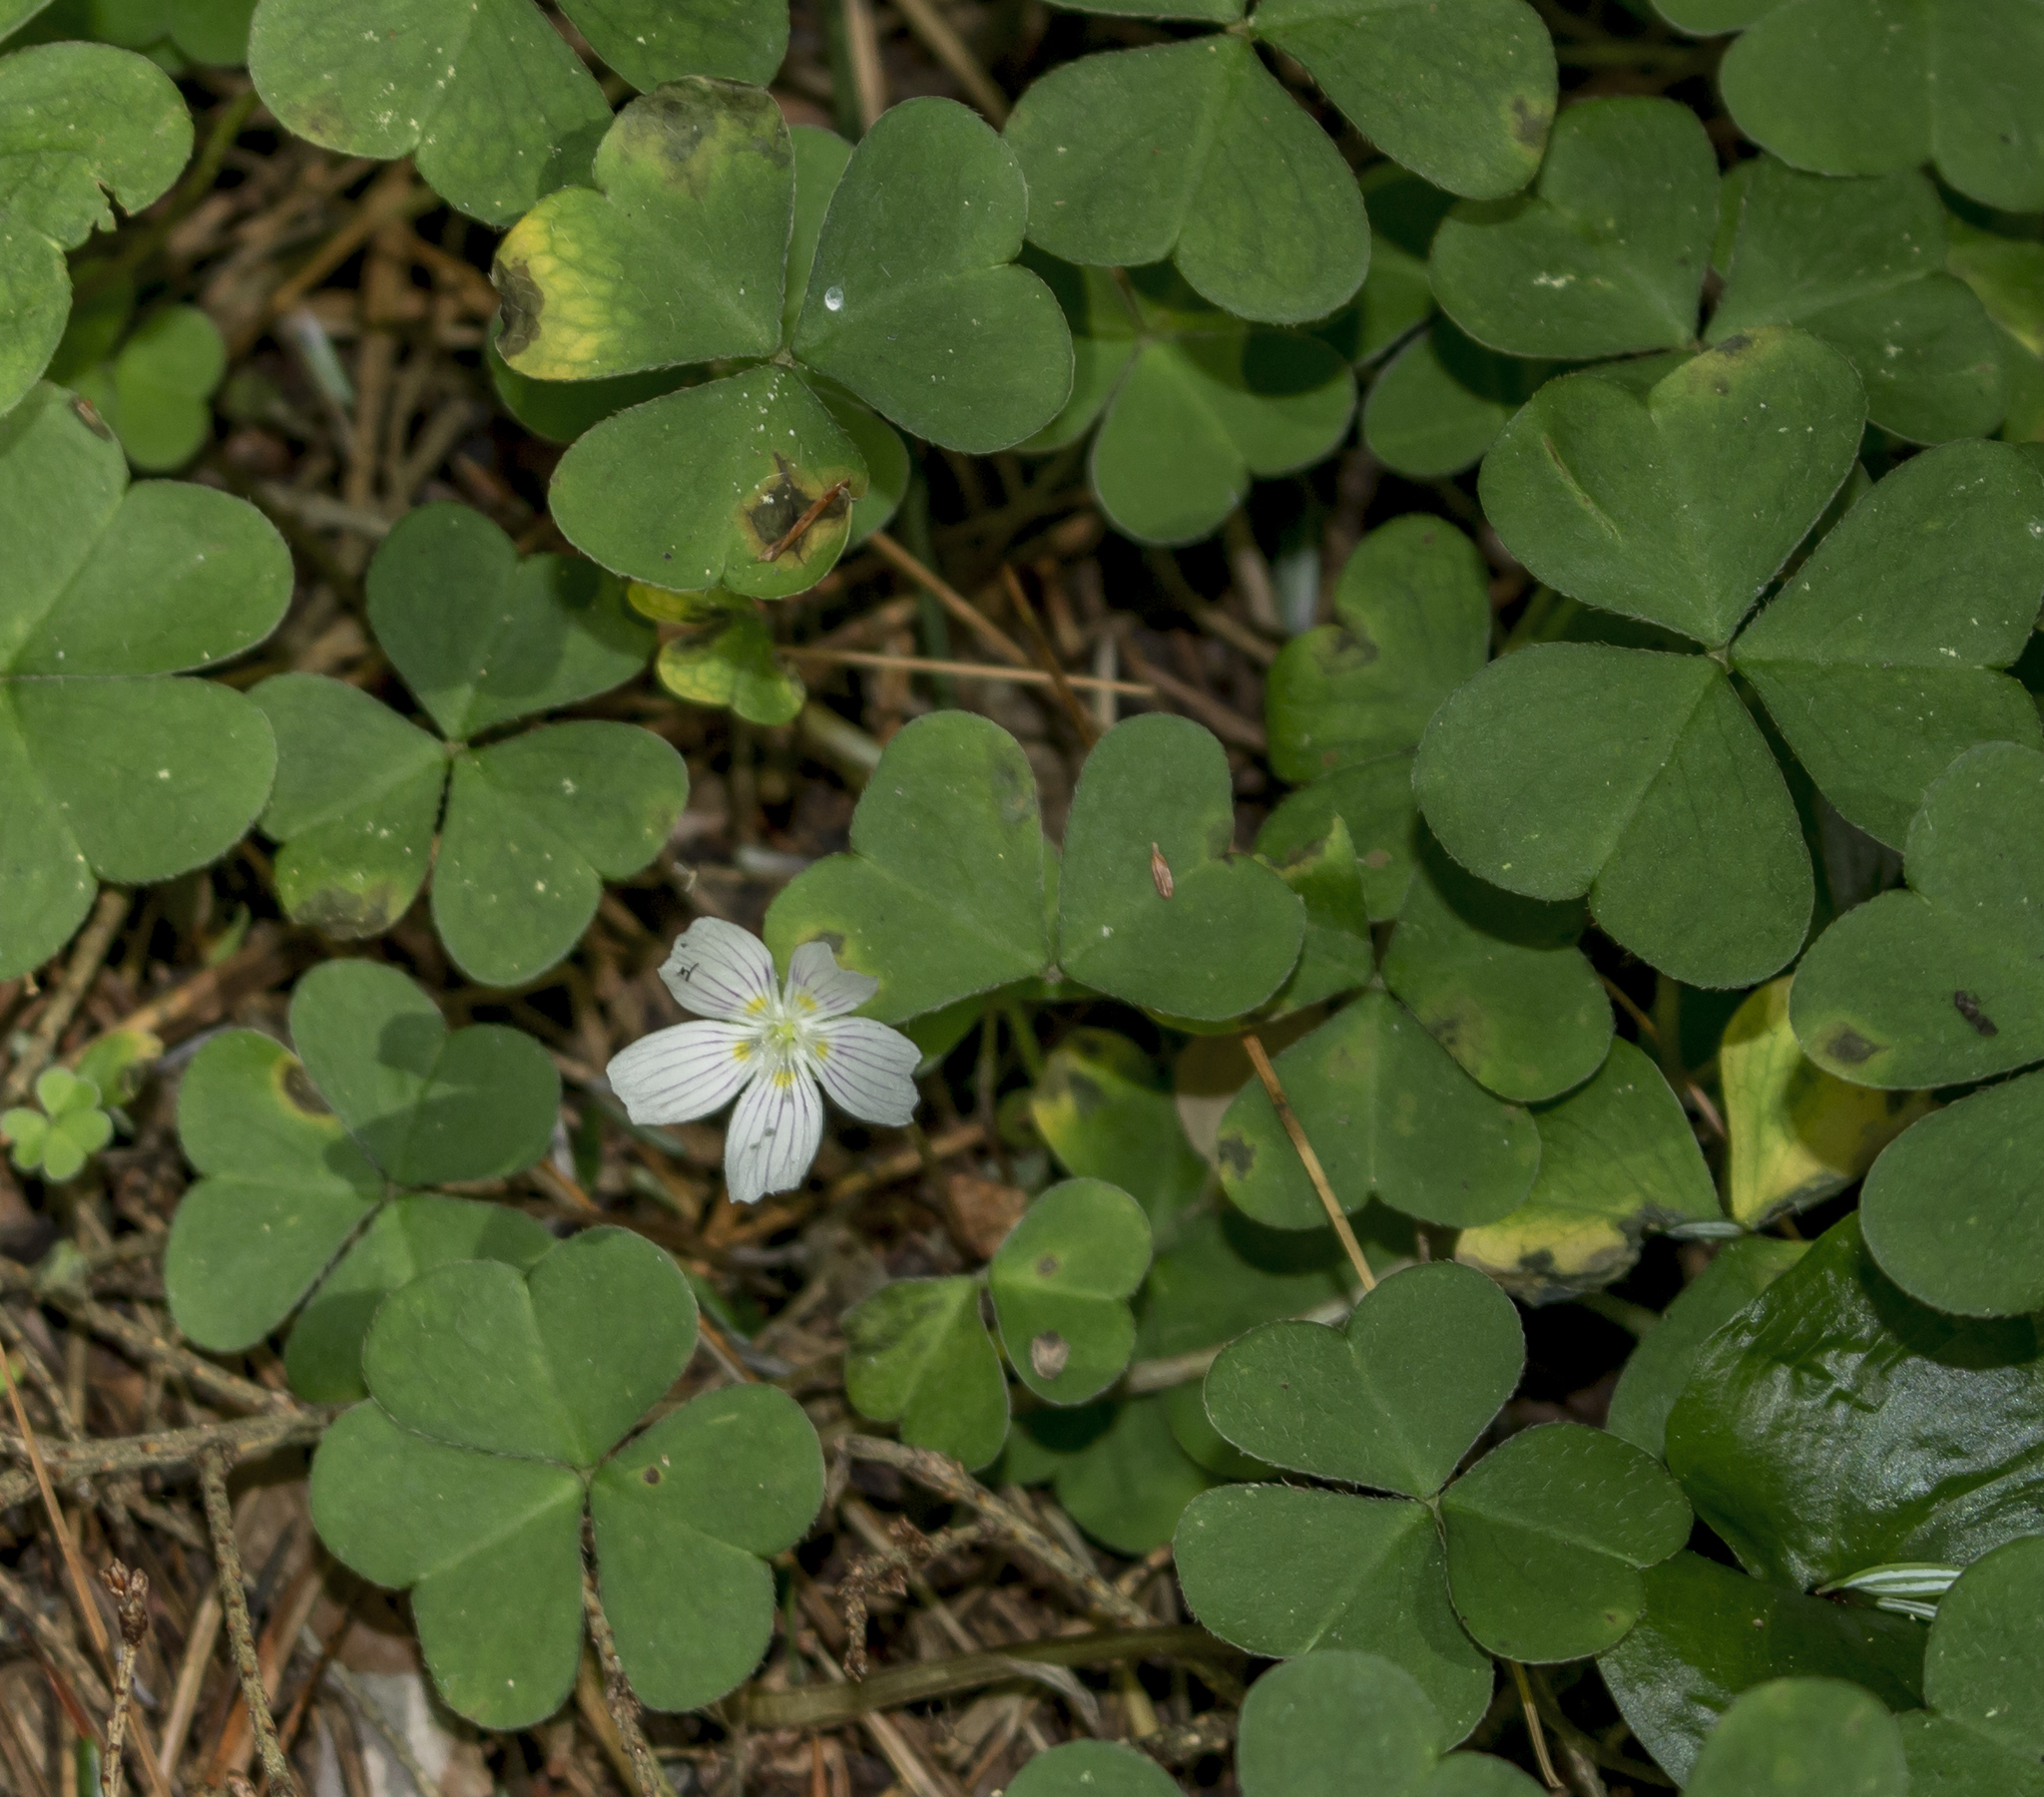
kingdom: Plantae
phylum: Tracheophyta
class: Magnoliopsida
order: Oxalidales
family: Oxalidaceae
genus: Oxalis
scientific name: Oxalis montana
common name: American wood-sorrel
